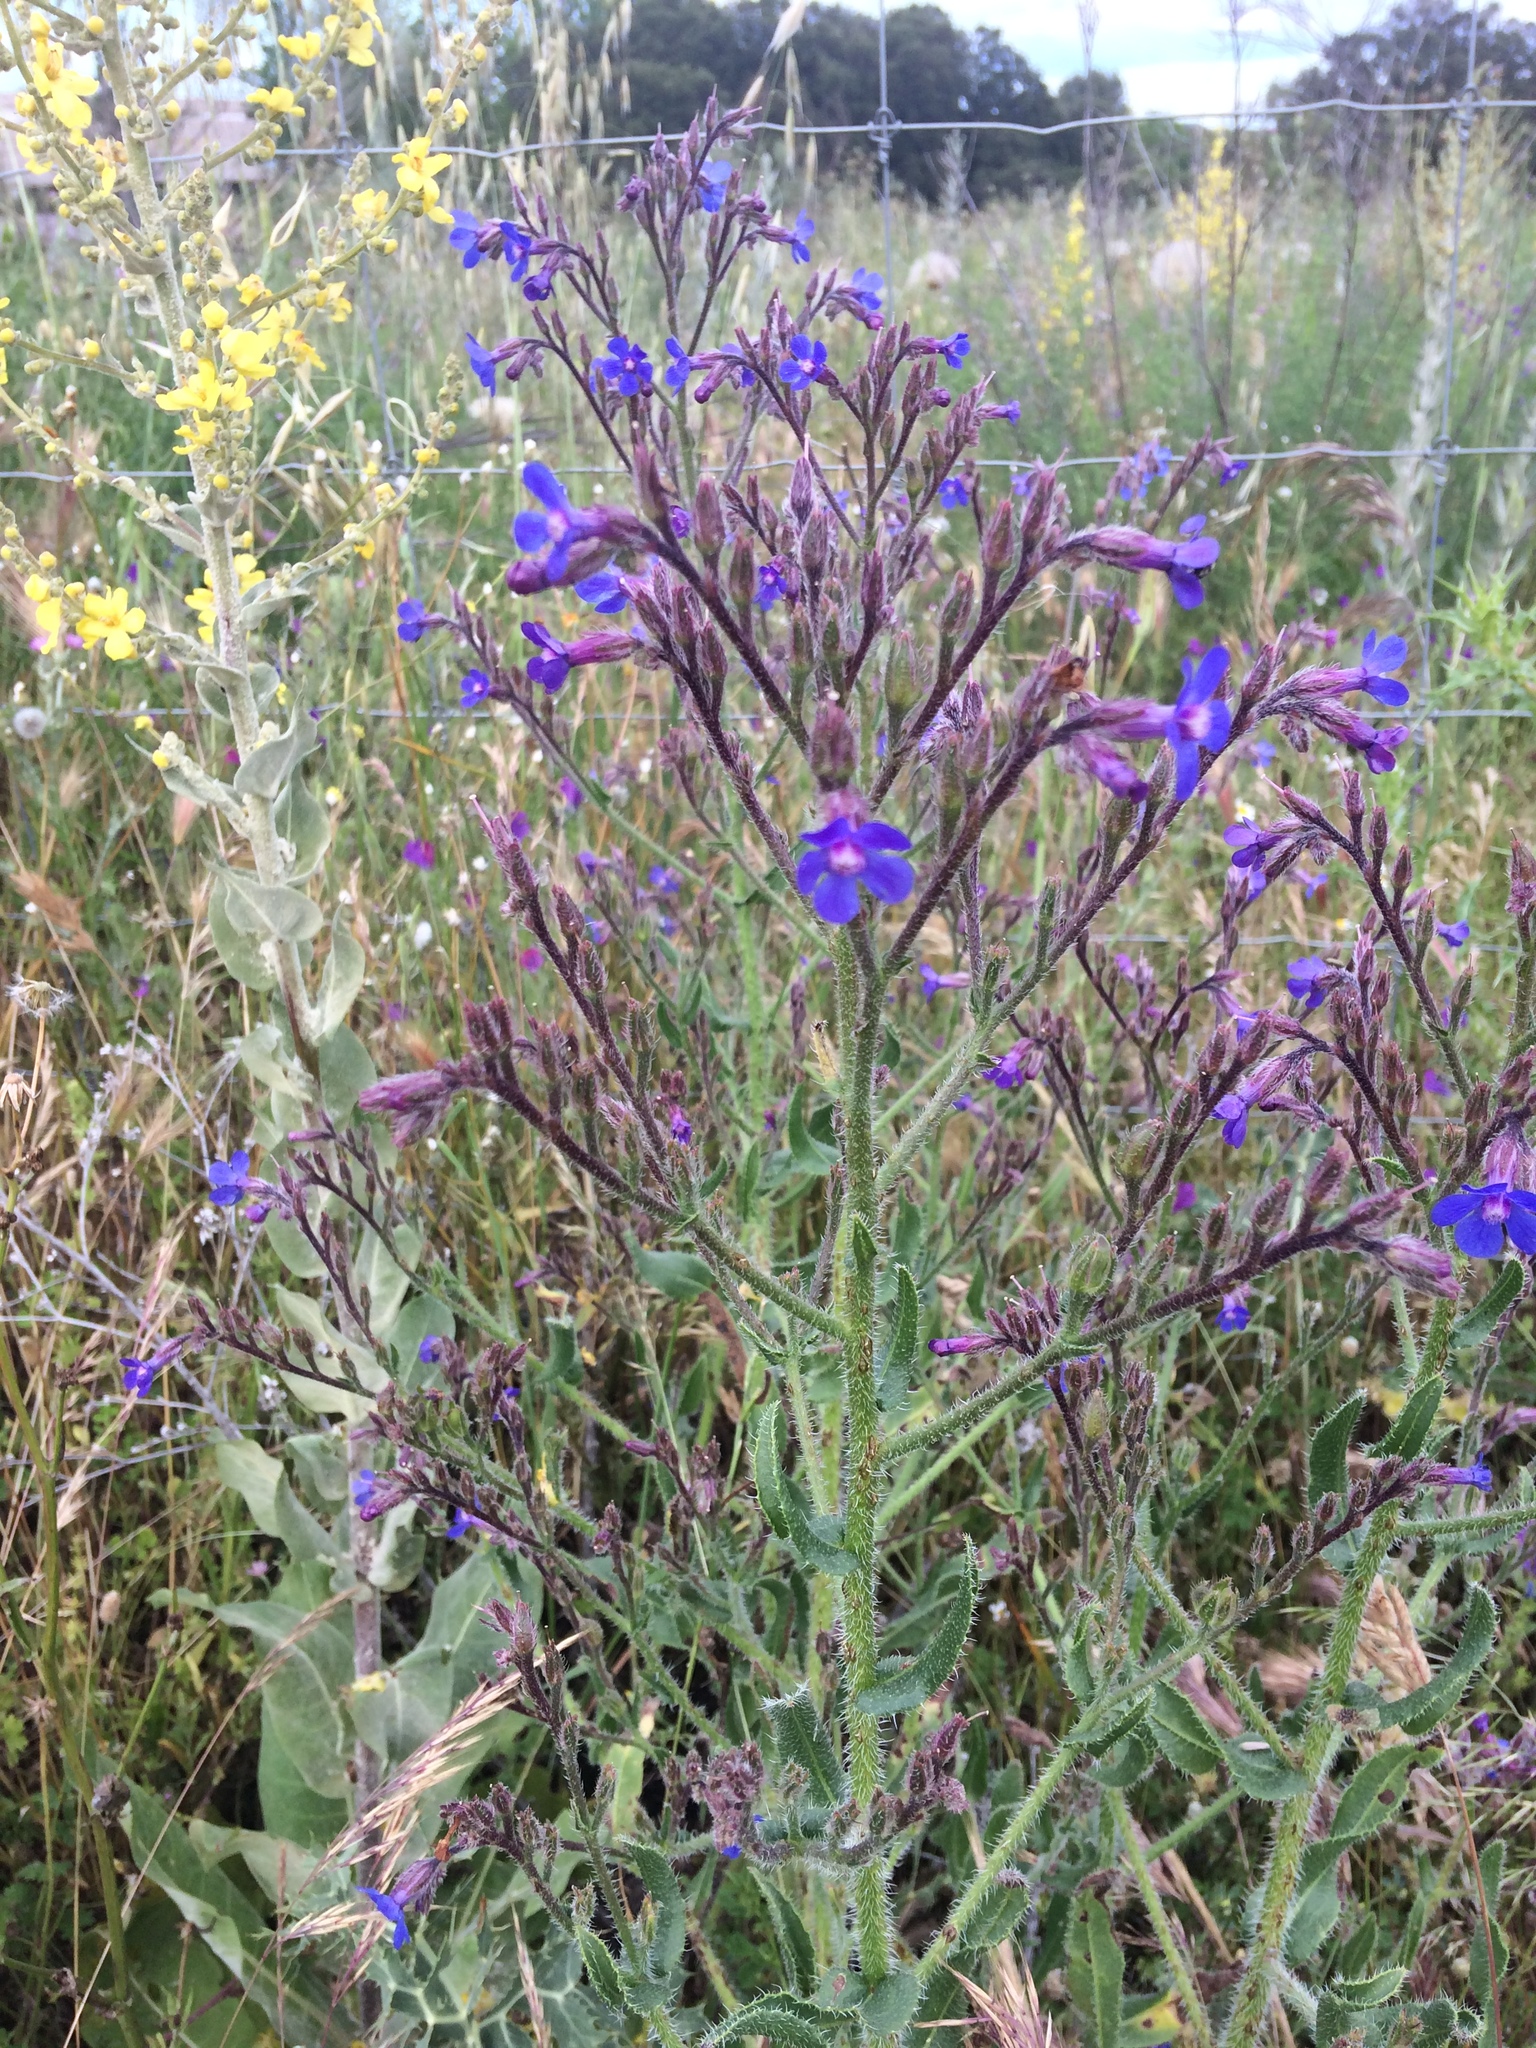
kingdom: Plantae
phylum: Tracheophyta
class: Magnoliopsida
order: Boraginales
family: Boraginaceae
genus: Anchusa
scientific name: Anchusa azurea
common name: Garden anchusa
